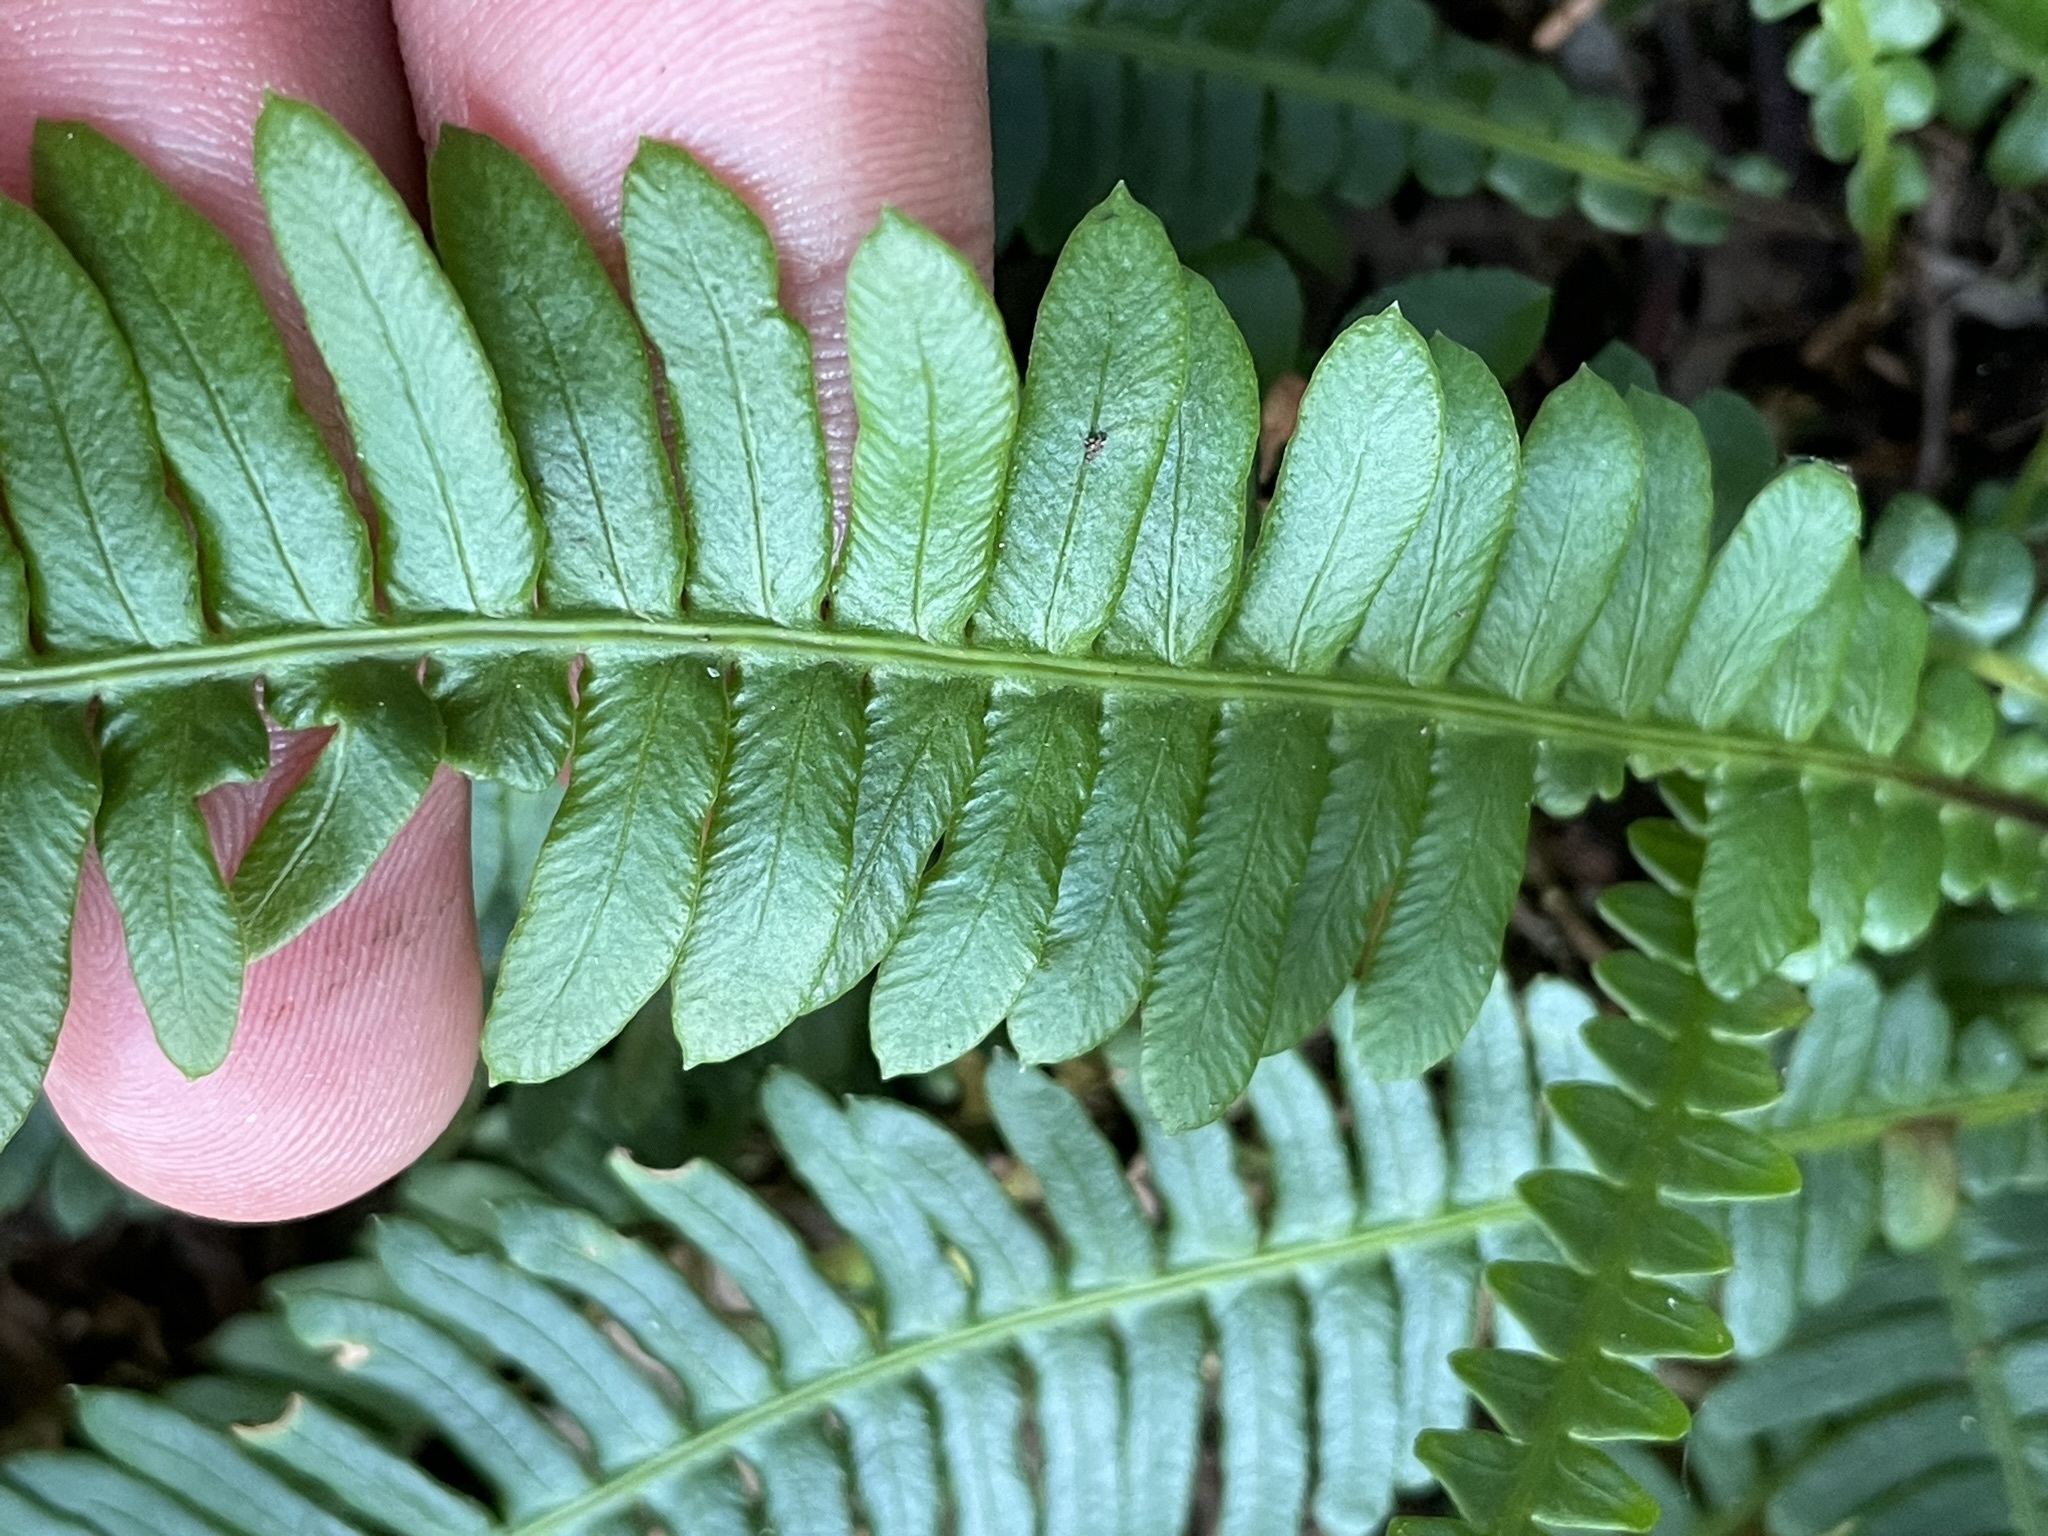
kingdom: Plantae
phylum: Tracheophyta
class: Polypodiopsida
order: Polypodiales
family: Blechnaceae
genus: Struthiopteris
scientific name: Struthiopteris spicant
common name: Deer fern
